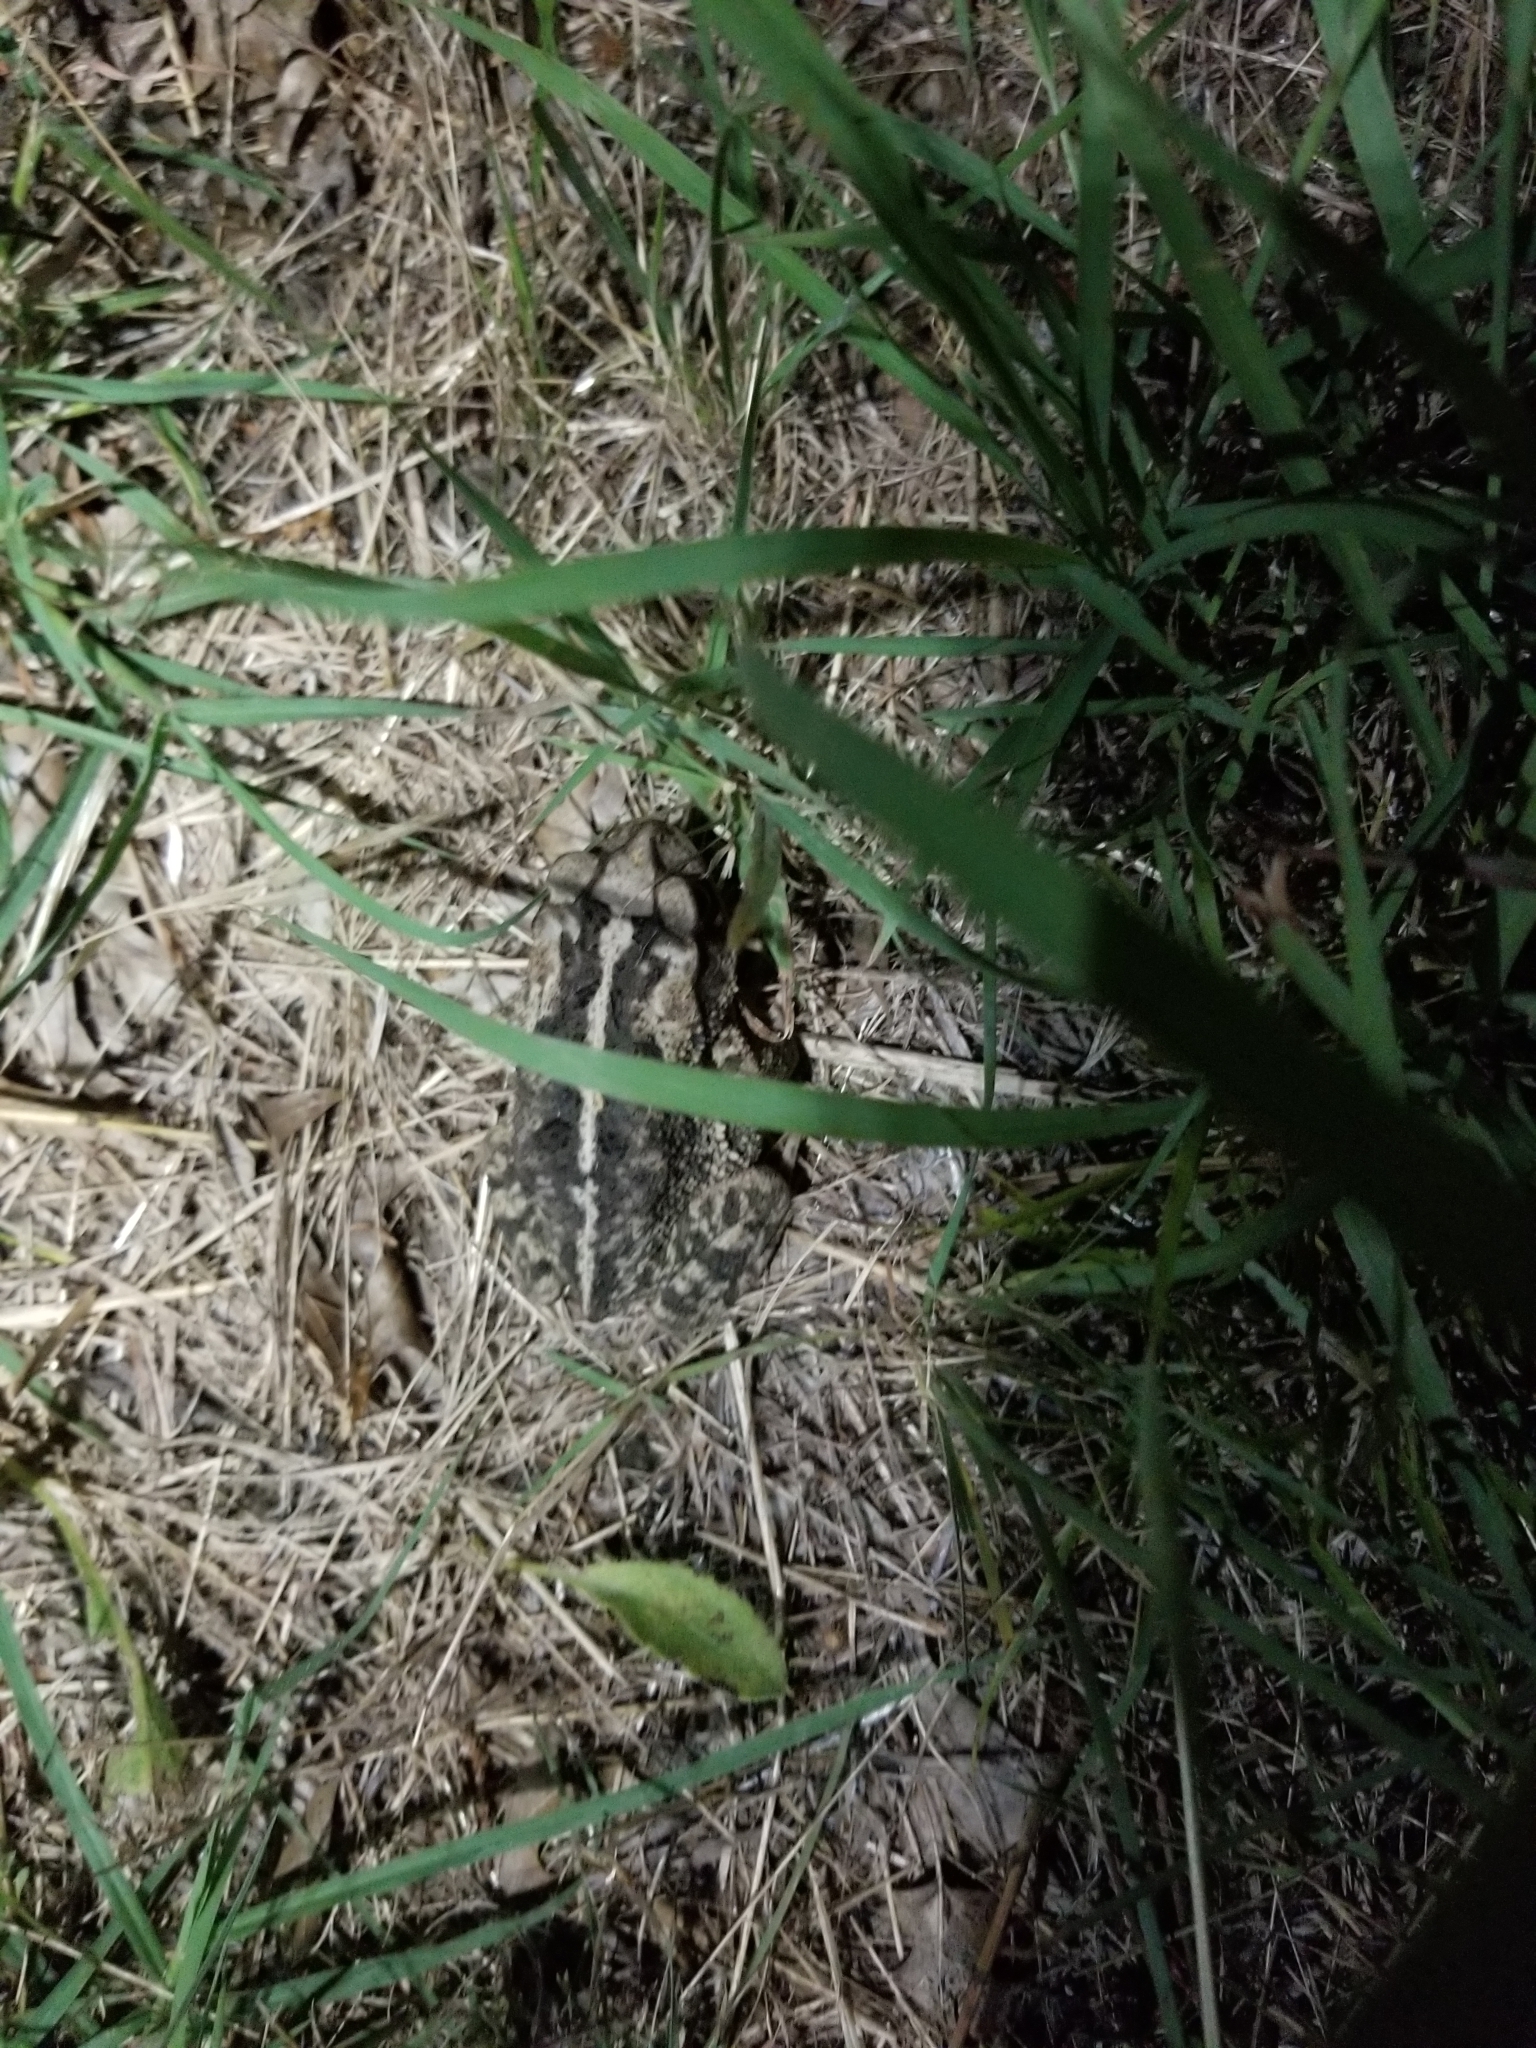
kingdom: Animalia
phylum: Chordata
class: Amphibia
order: Anura
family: Bufonidae
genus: Incilius
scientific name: Incilius nebulifer
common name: Gulf coast toad
